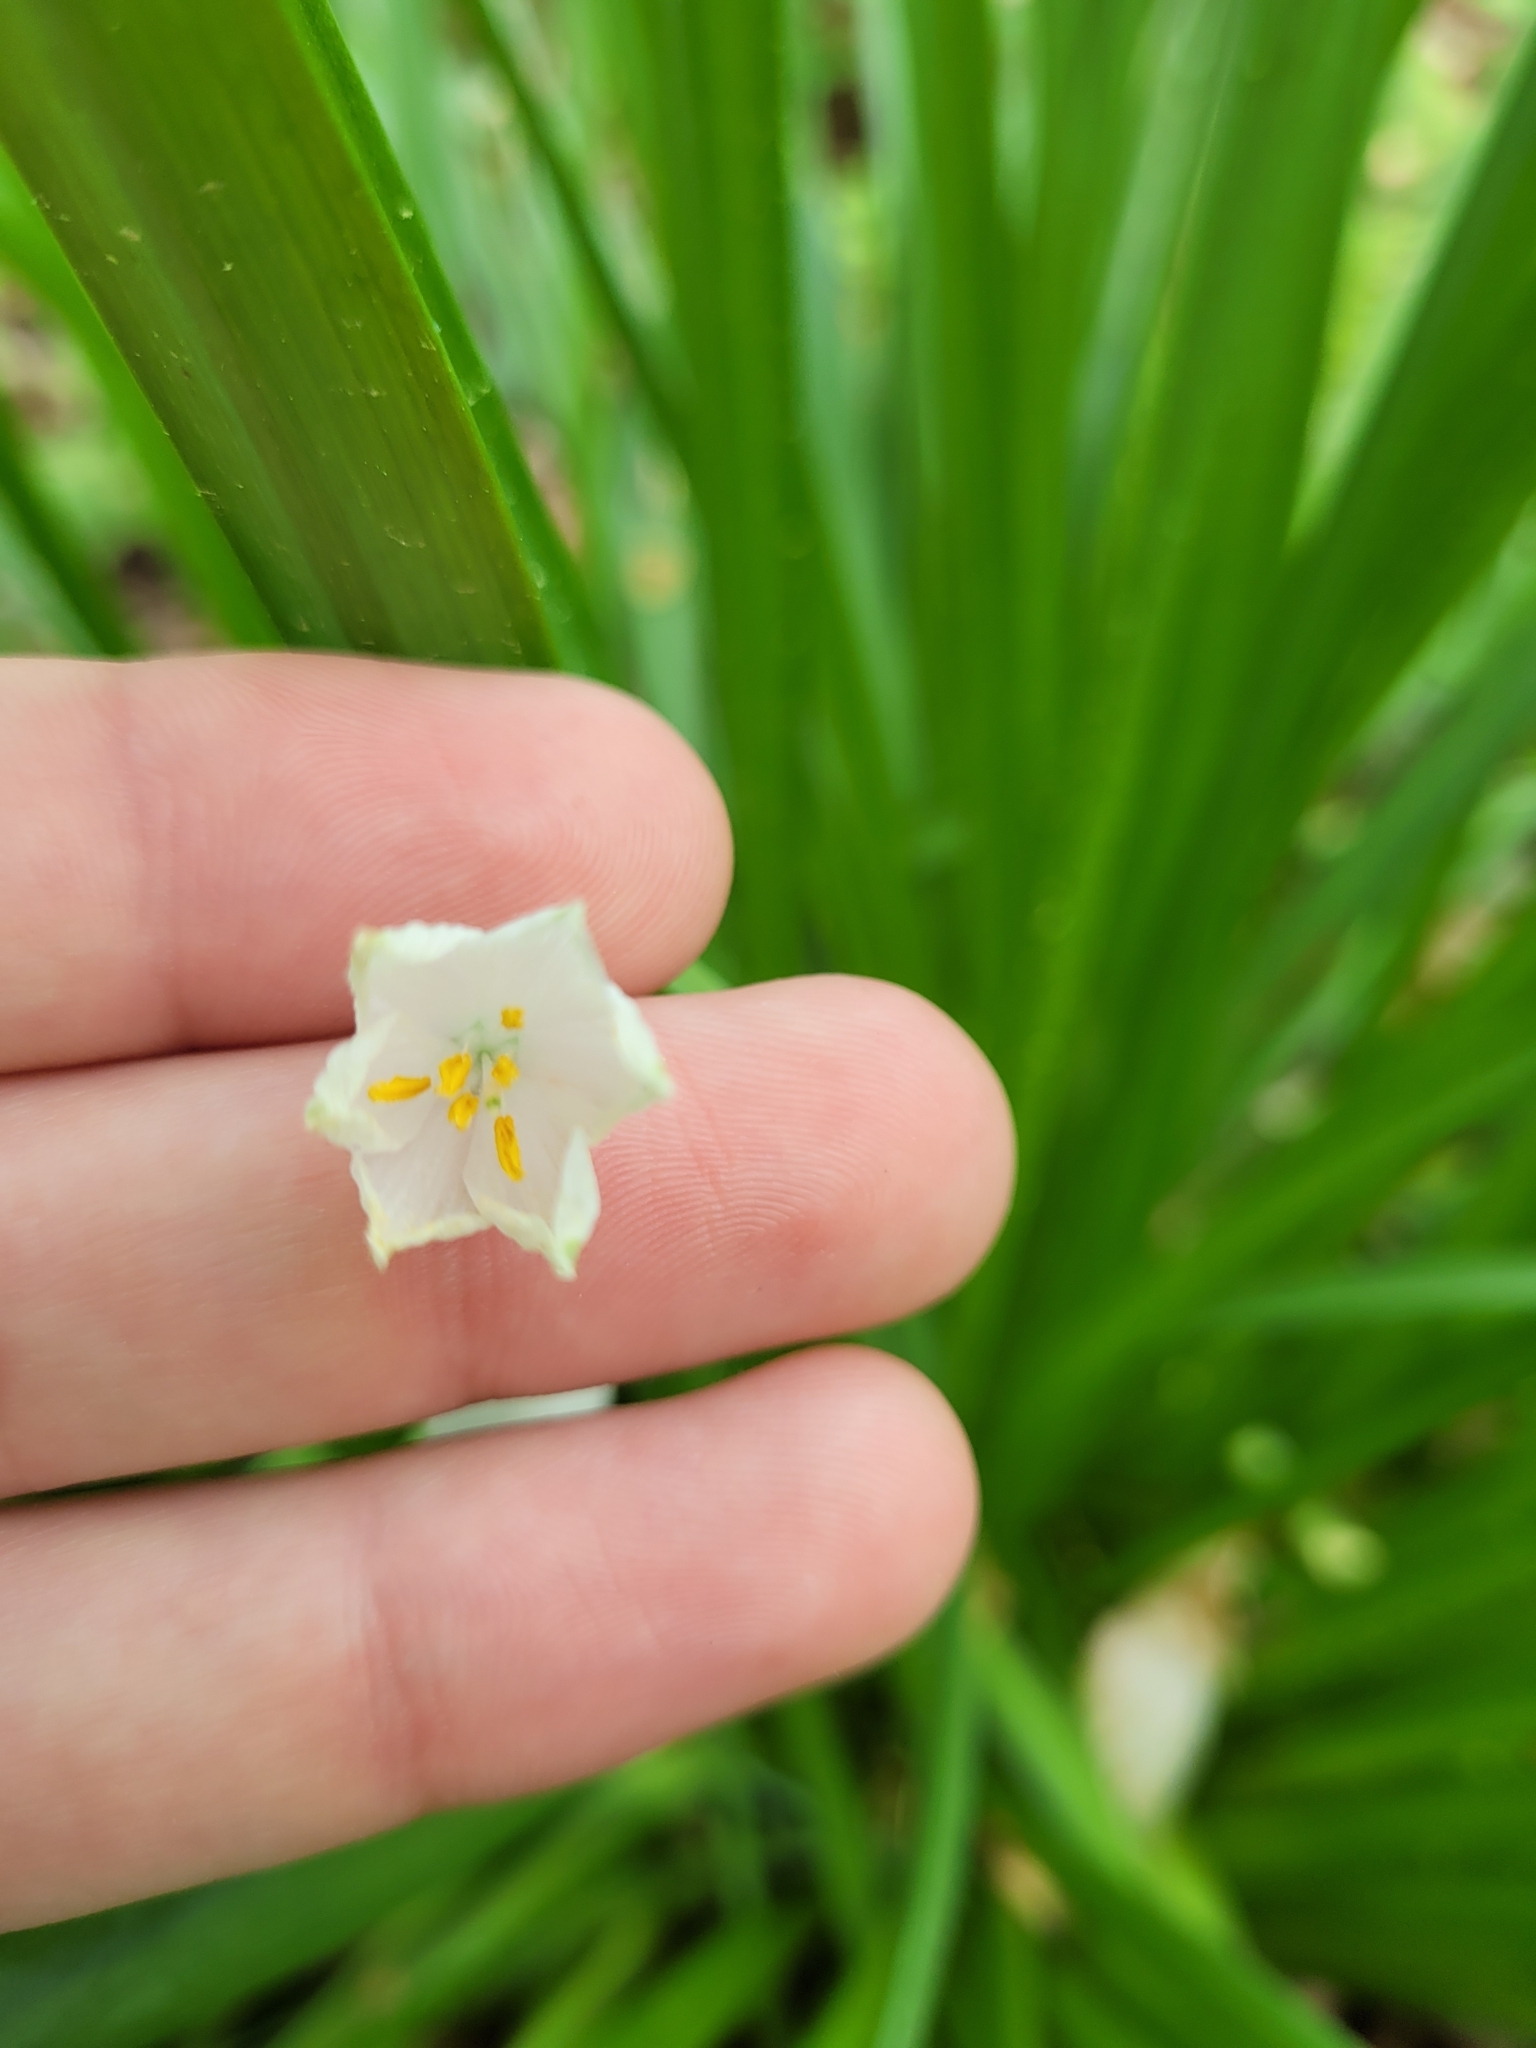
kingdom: Plantae
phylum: Tracheophyta
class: Liliopsida
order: Asparagales
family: Amaryllidaceae
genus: Leucojum
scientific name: Leucojum vernum
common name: Spring snowflake
